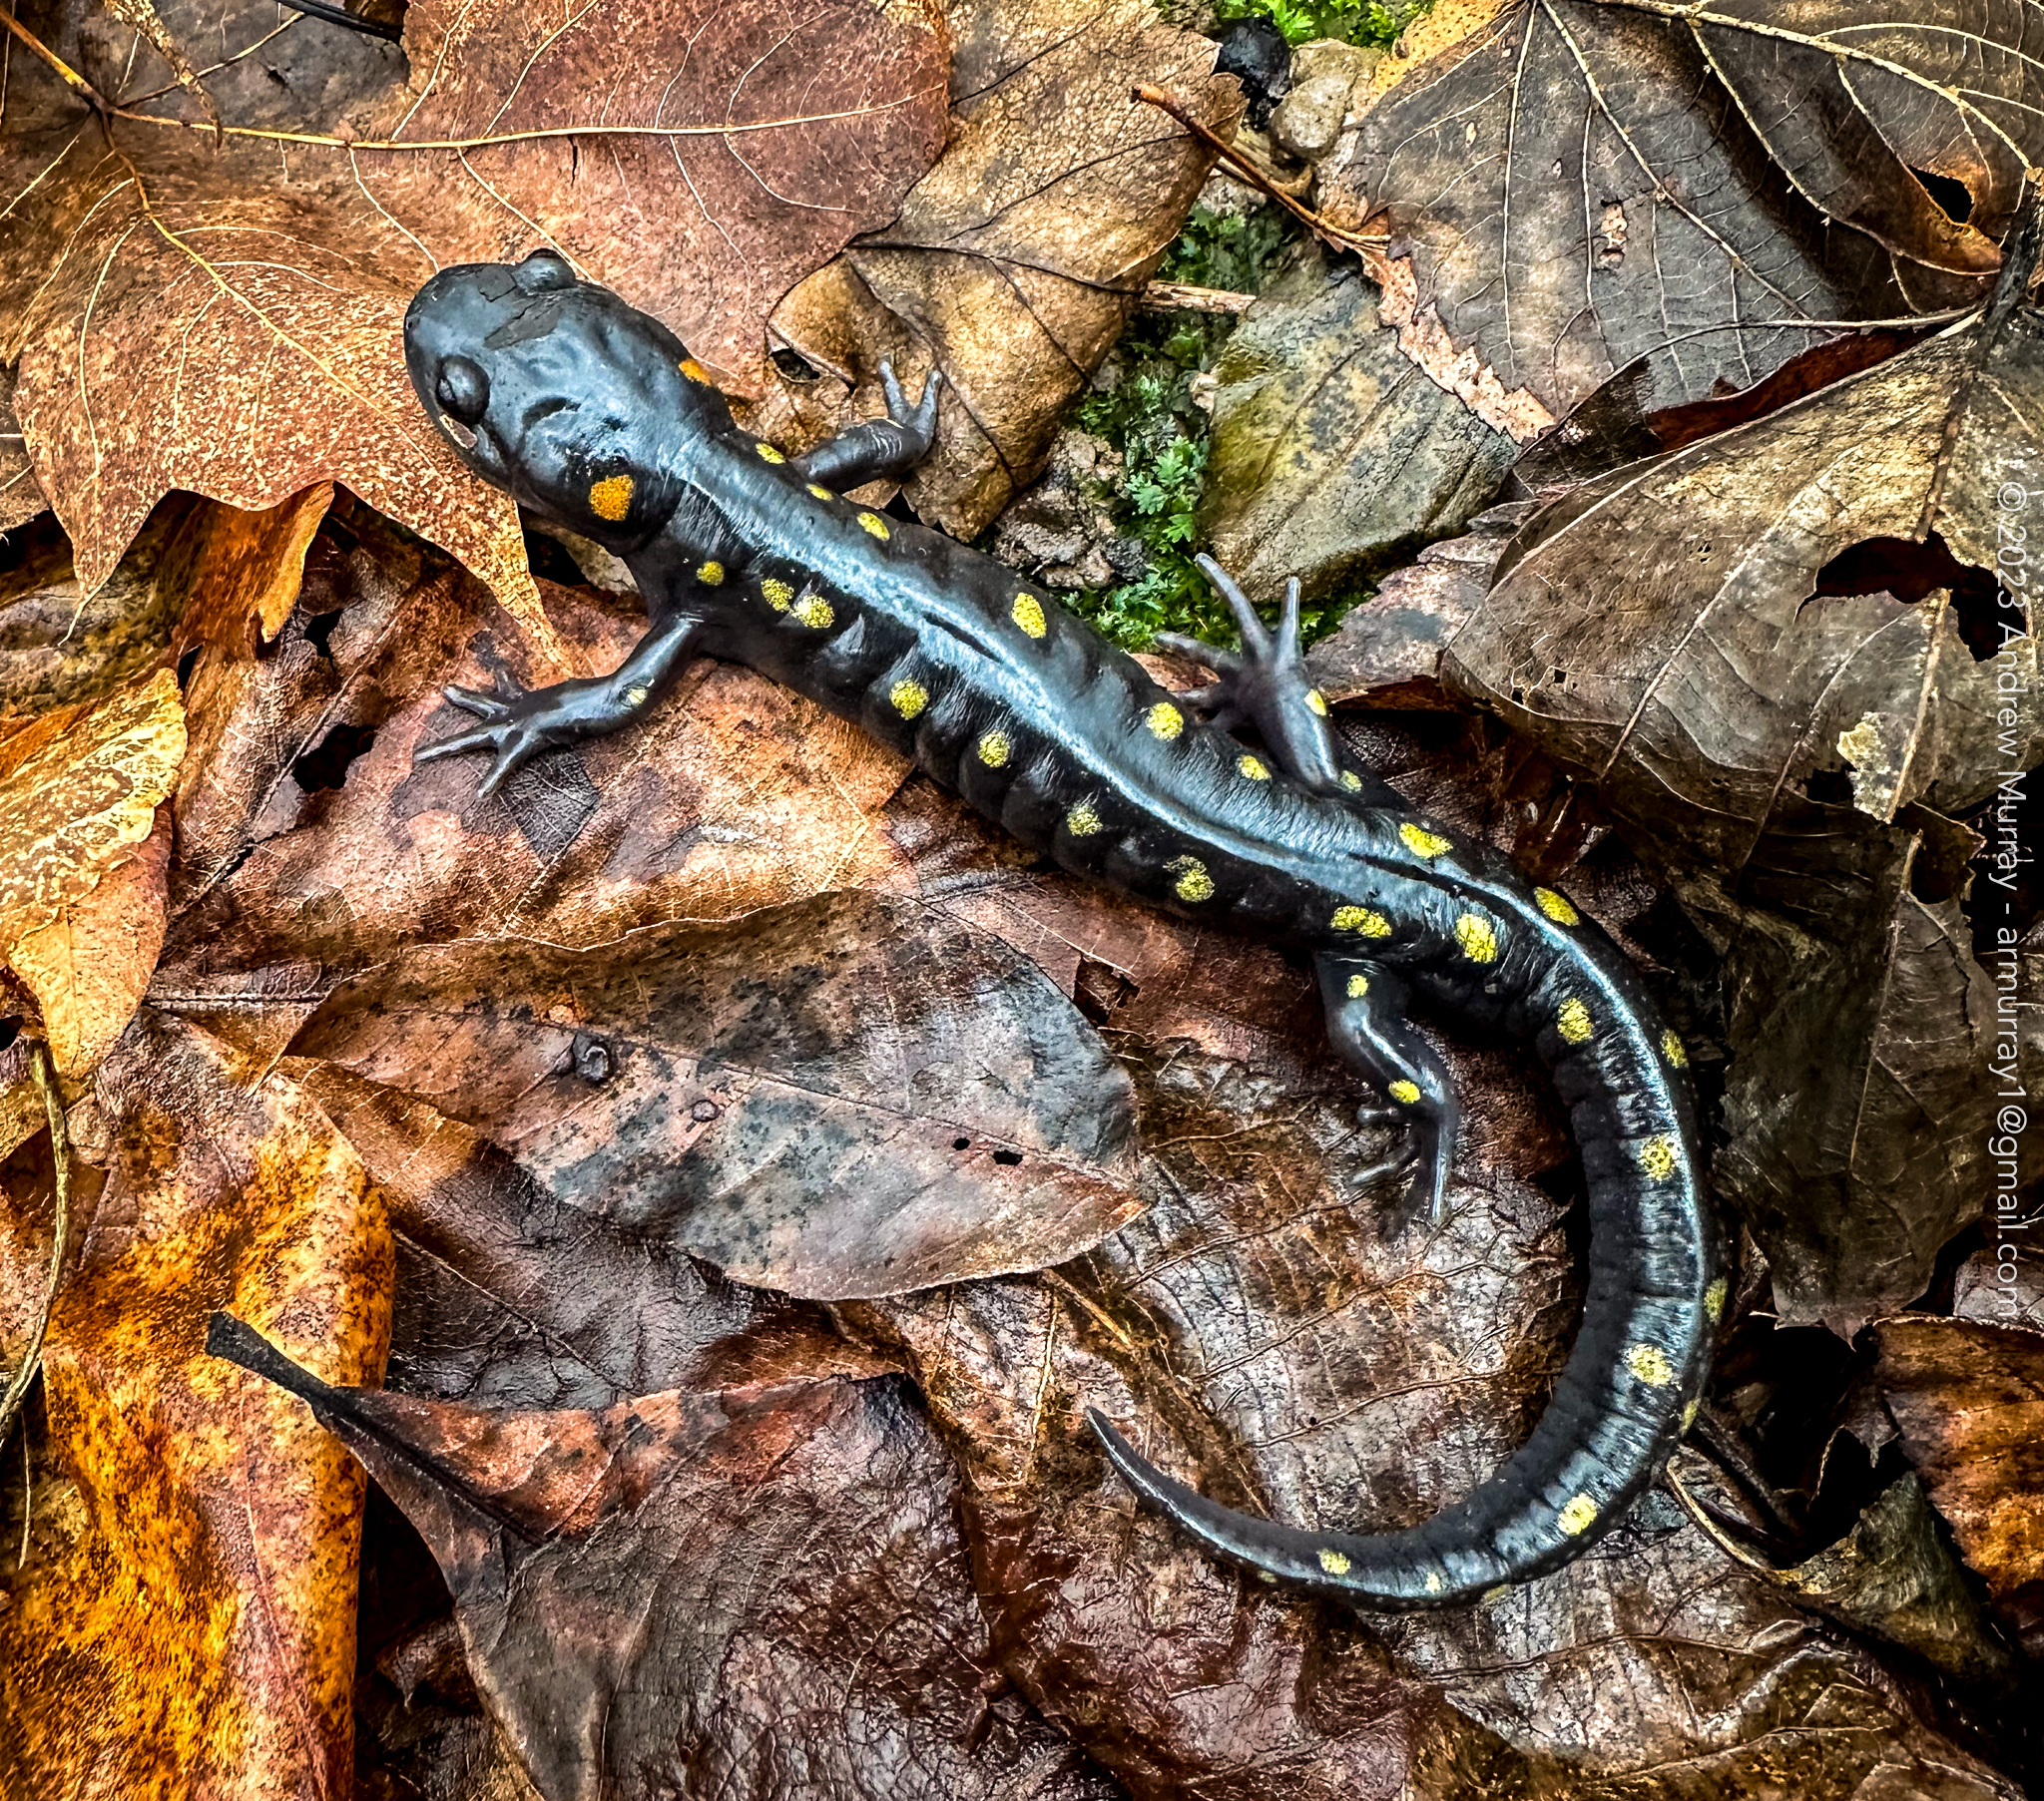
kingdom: Animalia
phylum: Chordata
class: Amphibia
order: Caudata
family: Ambystomatidae
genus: Ambystoma
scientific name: Ambystoma maculatum
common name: Spotted salamander
